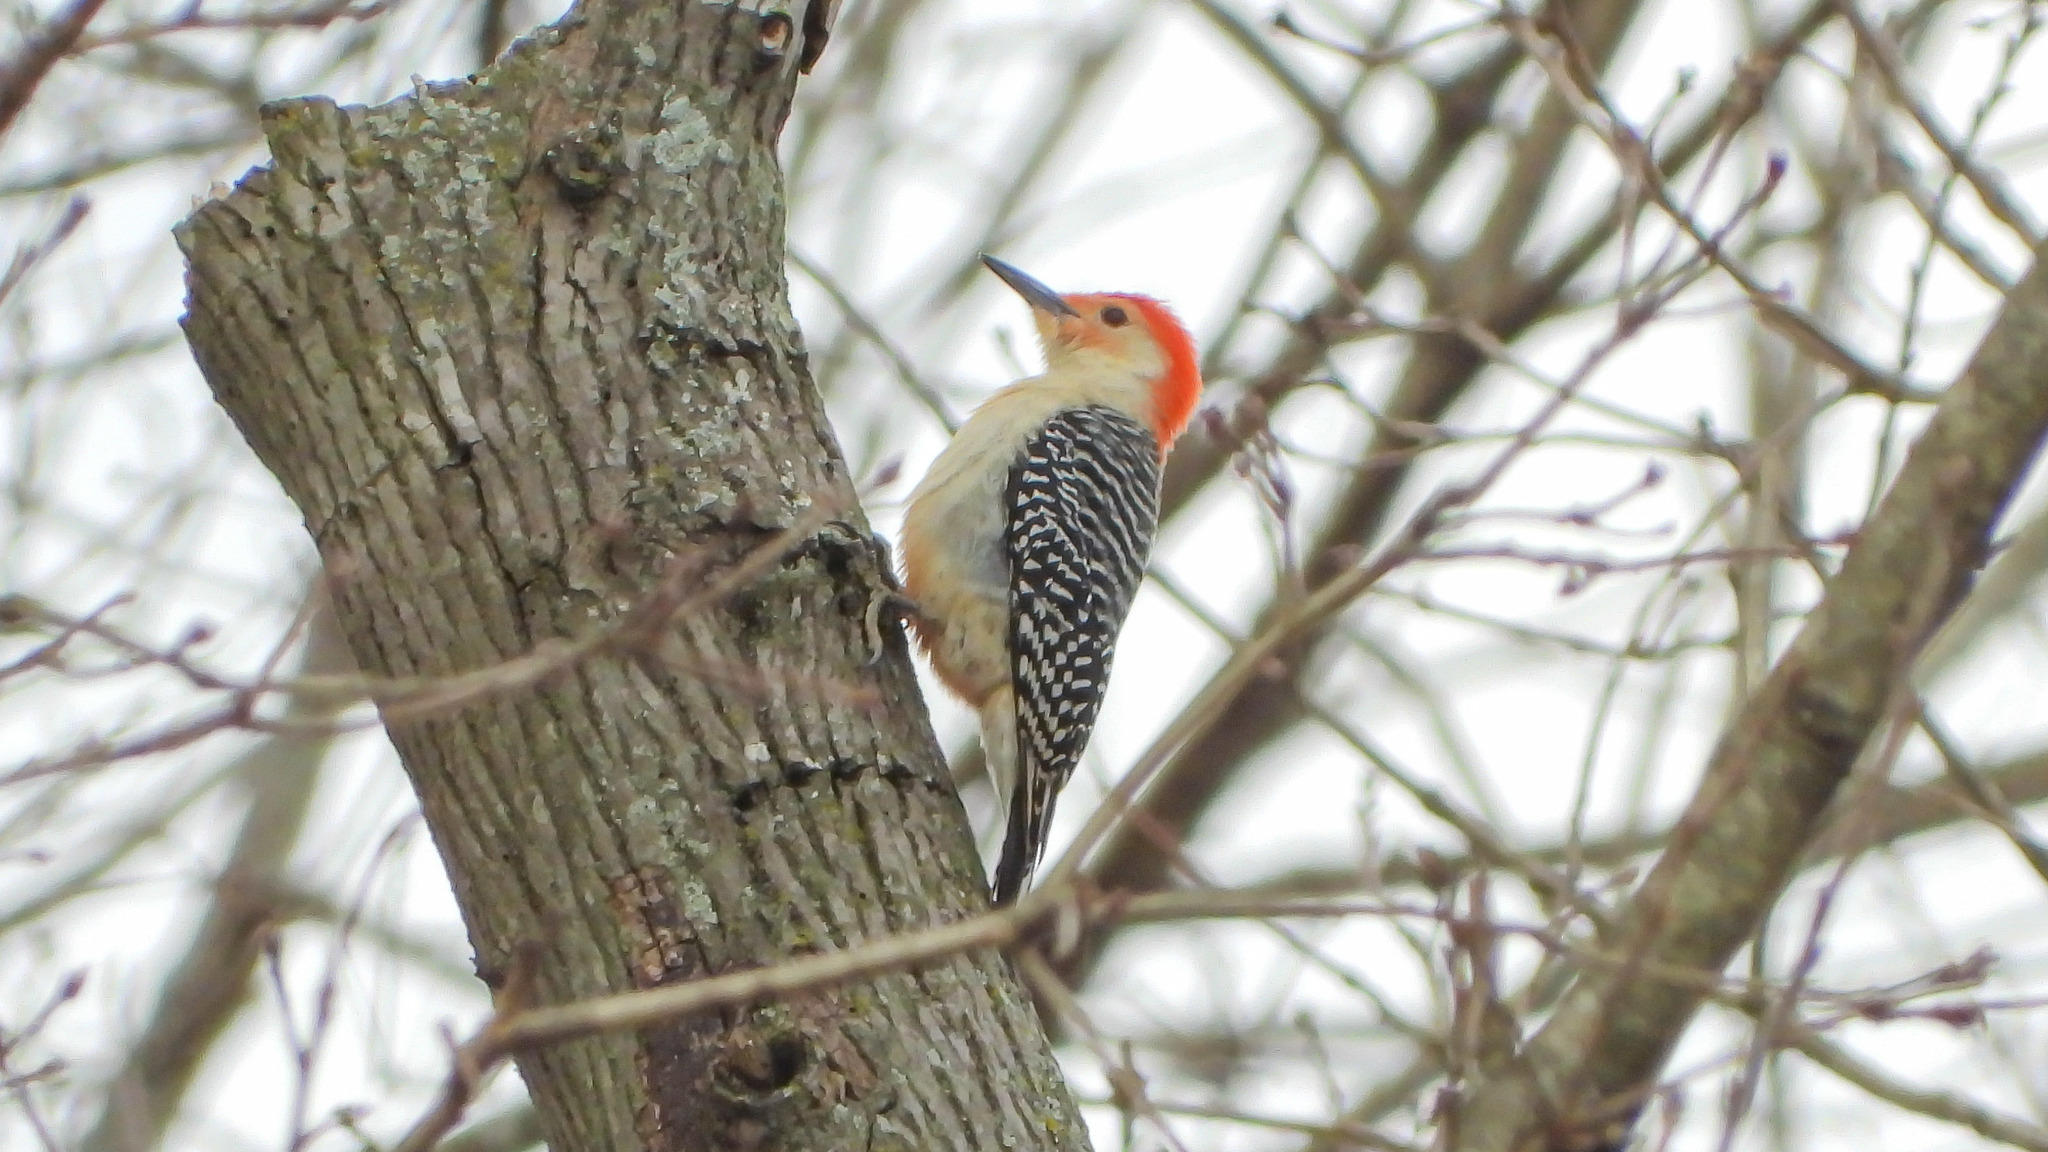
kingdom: Animalia
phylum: Chordata
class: Aves
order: Piciformes
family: Picidae
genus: Melanerpes
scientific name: Melanerpes carolinus
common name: Red-bellied woodpecker
